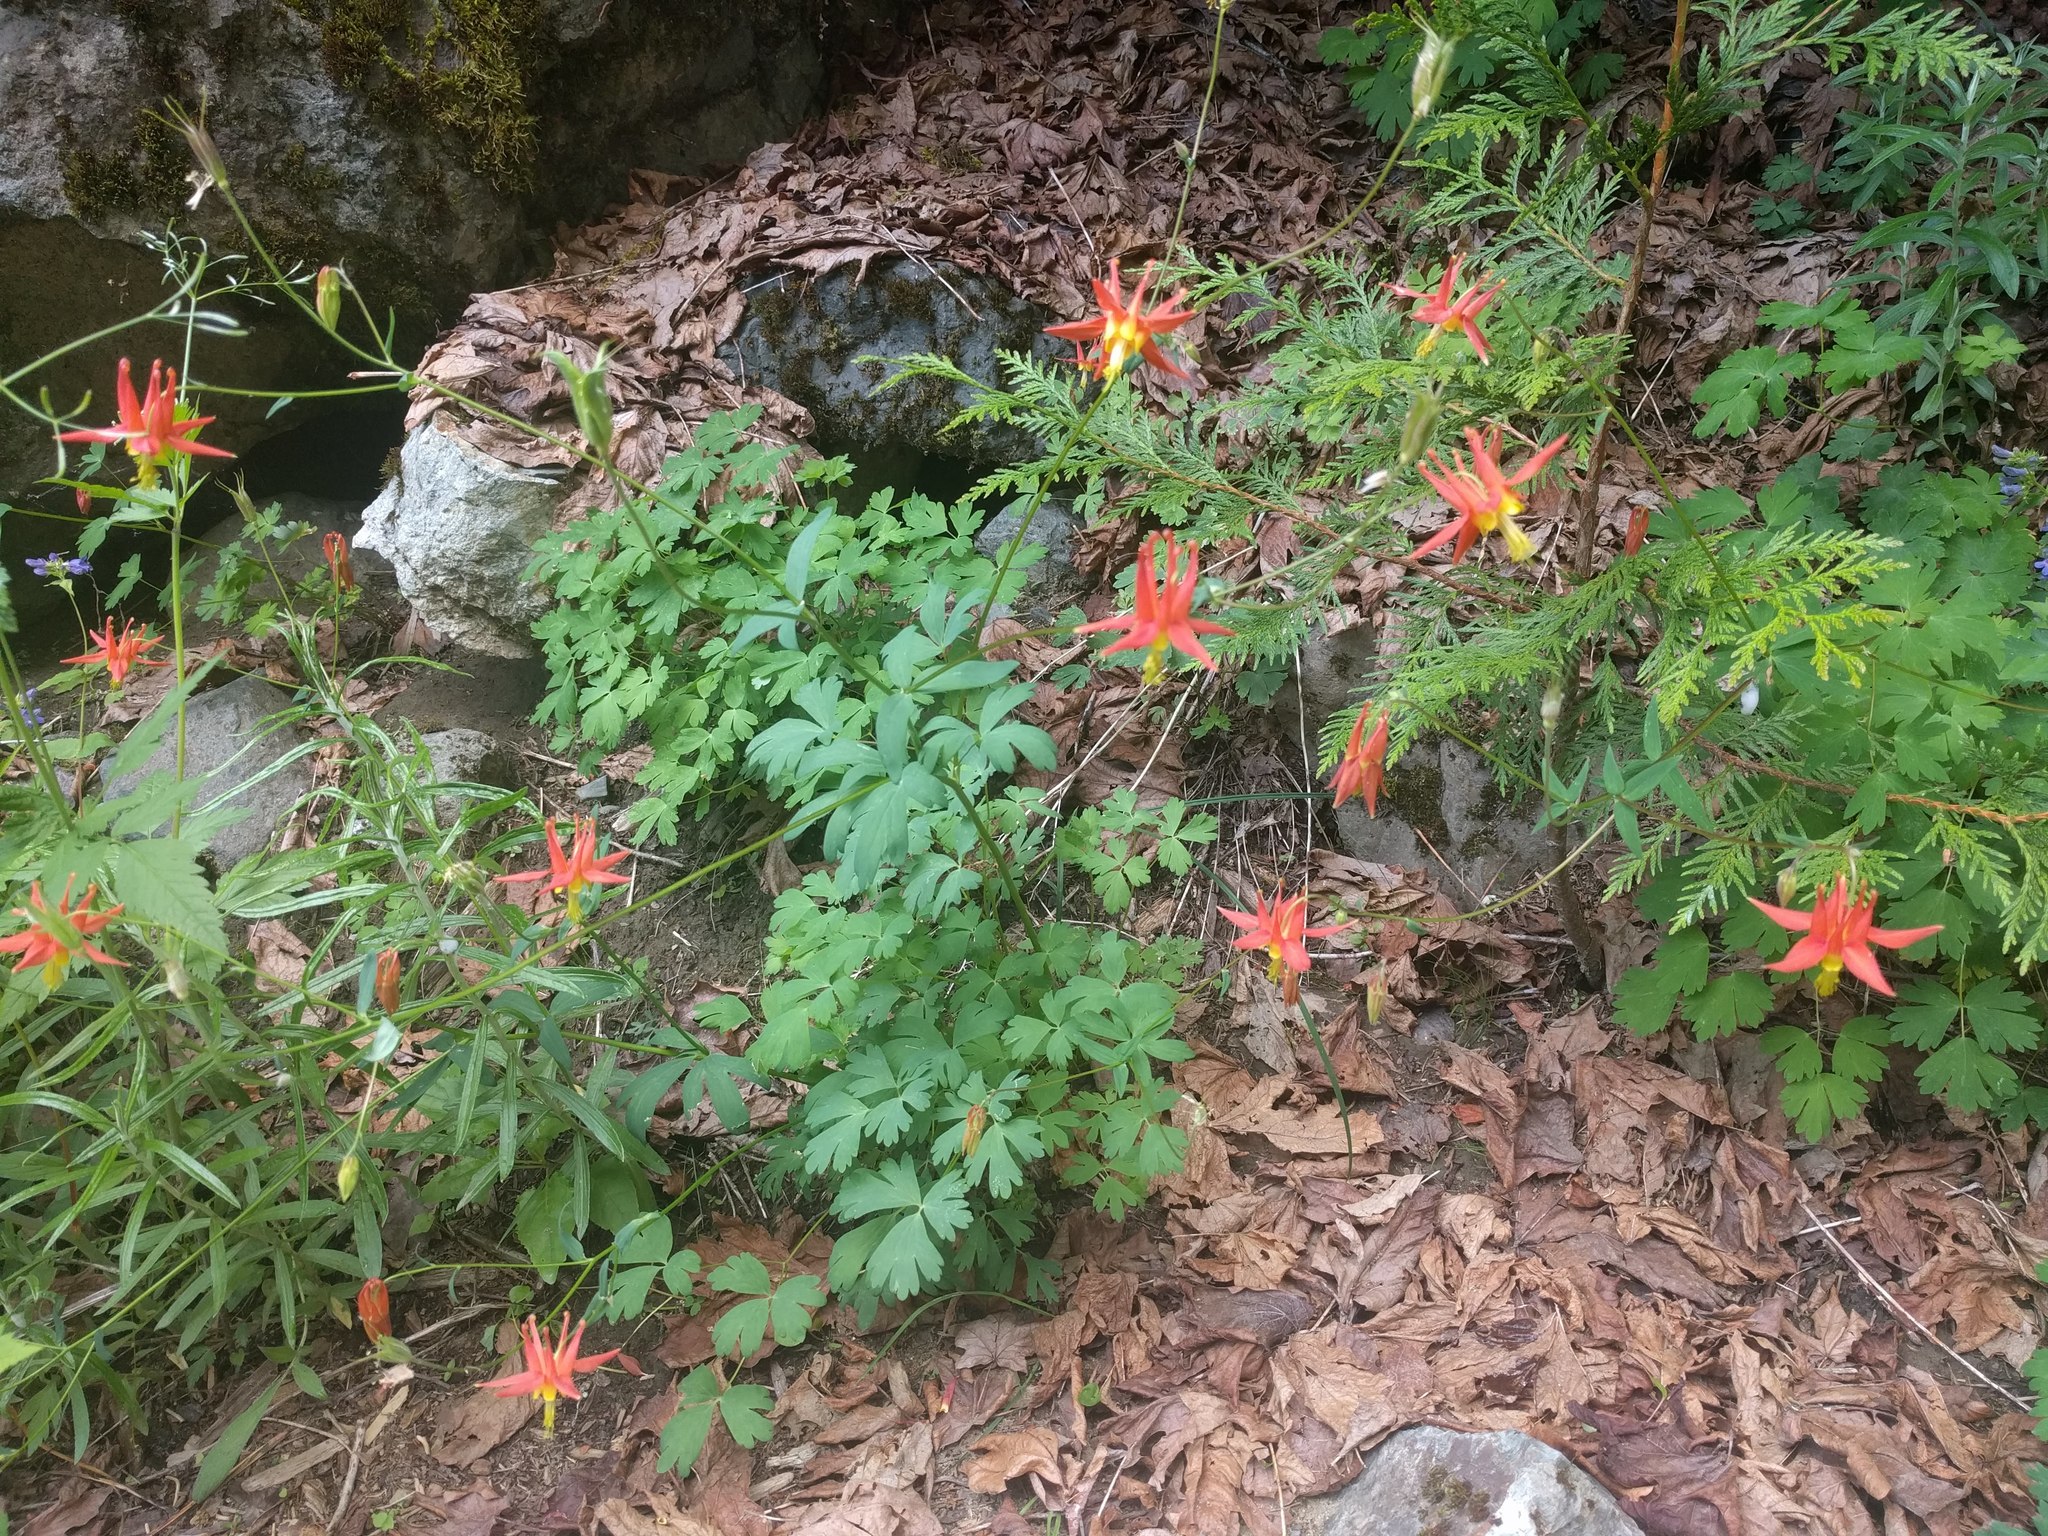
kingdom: Plantae
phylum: Tracheophyta
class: Magnoliopsida
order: Ranunculales
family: Ranunculaceae
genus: Aquilegia
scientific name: Aquilegia formosa
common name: Sitka columbine
